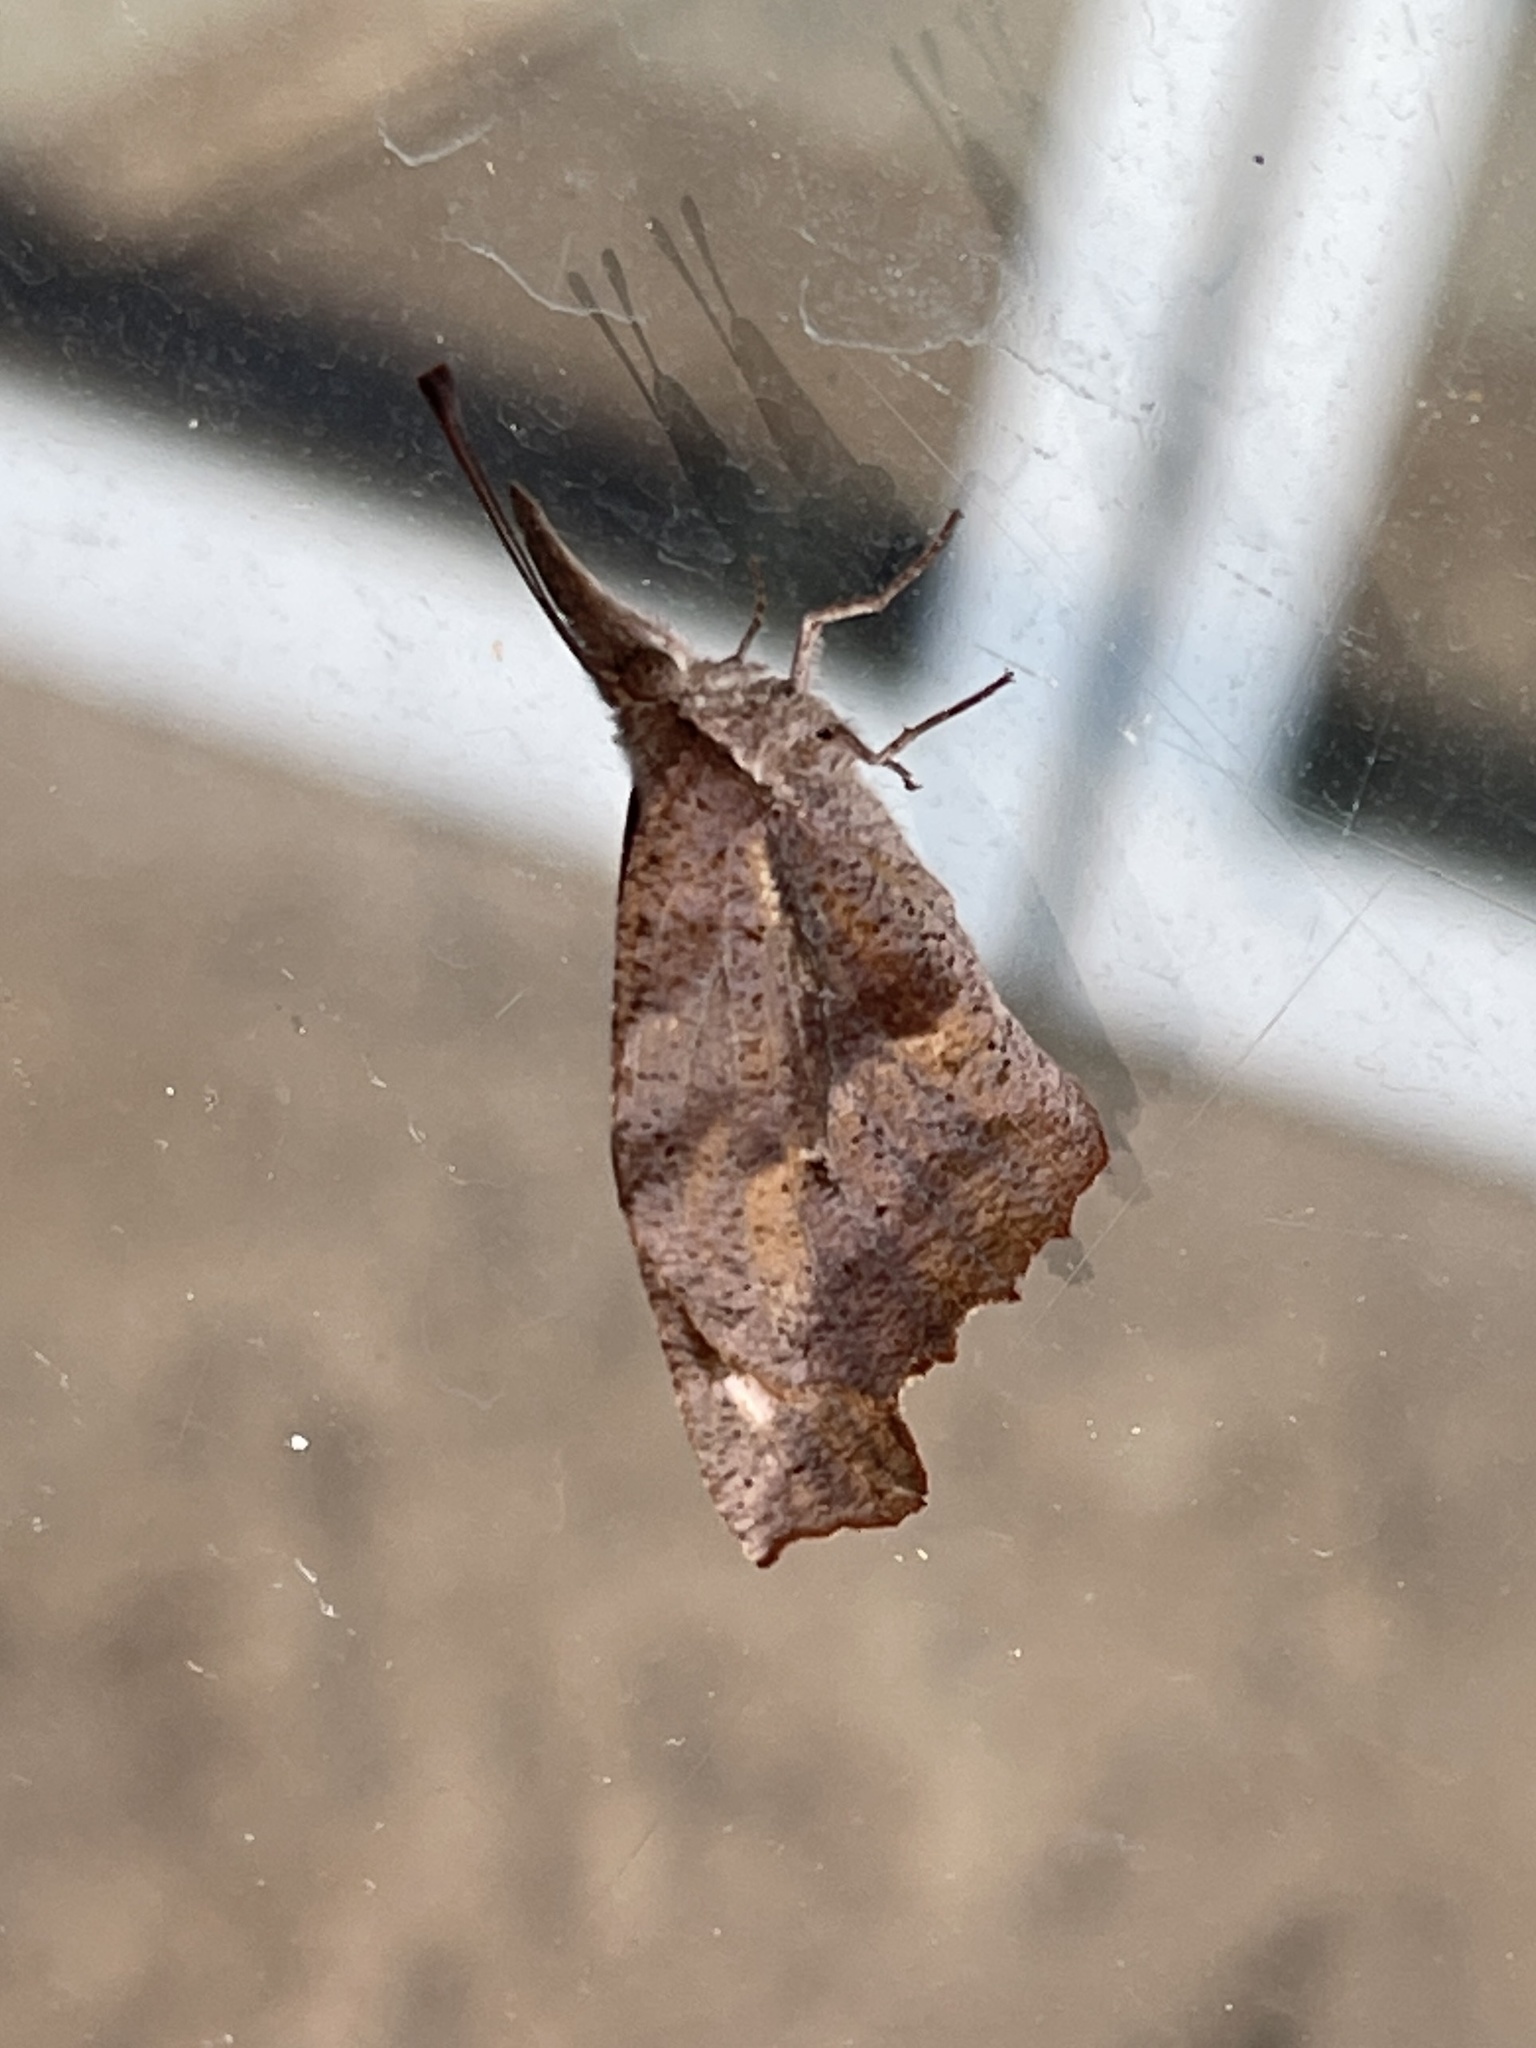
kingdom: Animalia
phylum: Arthropoda
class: Insecta
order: Lepidoptera
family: Nymphalidae
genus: Libytheana
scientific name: Libytheana carinenta
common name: American snout
